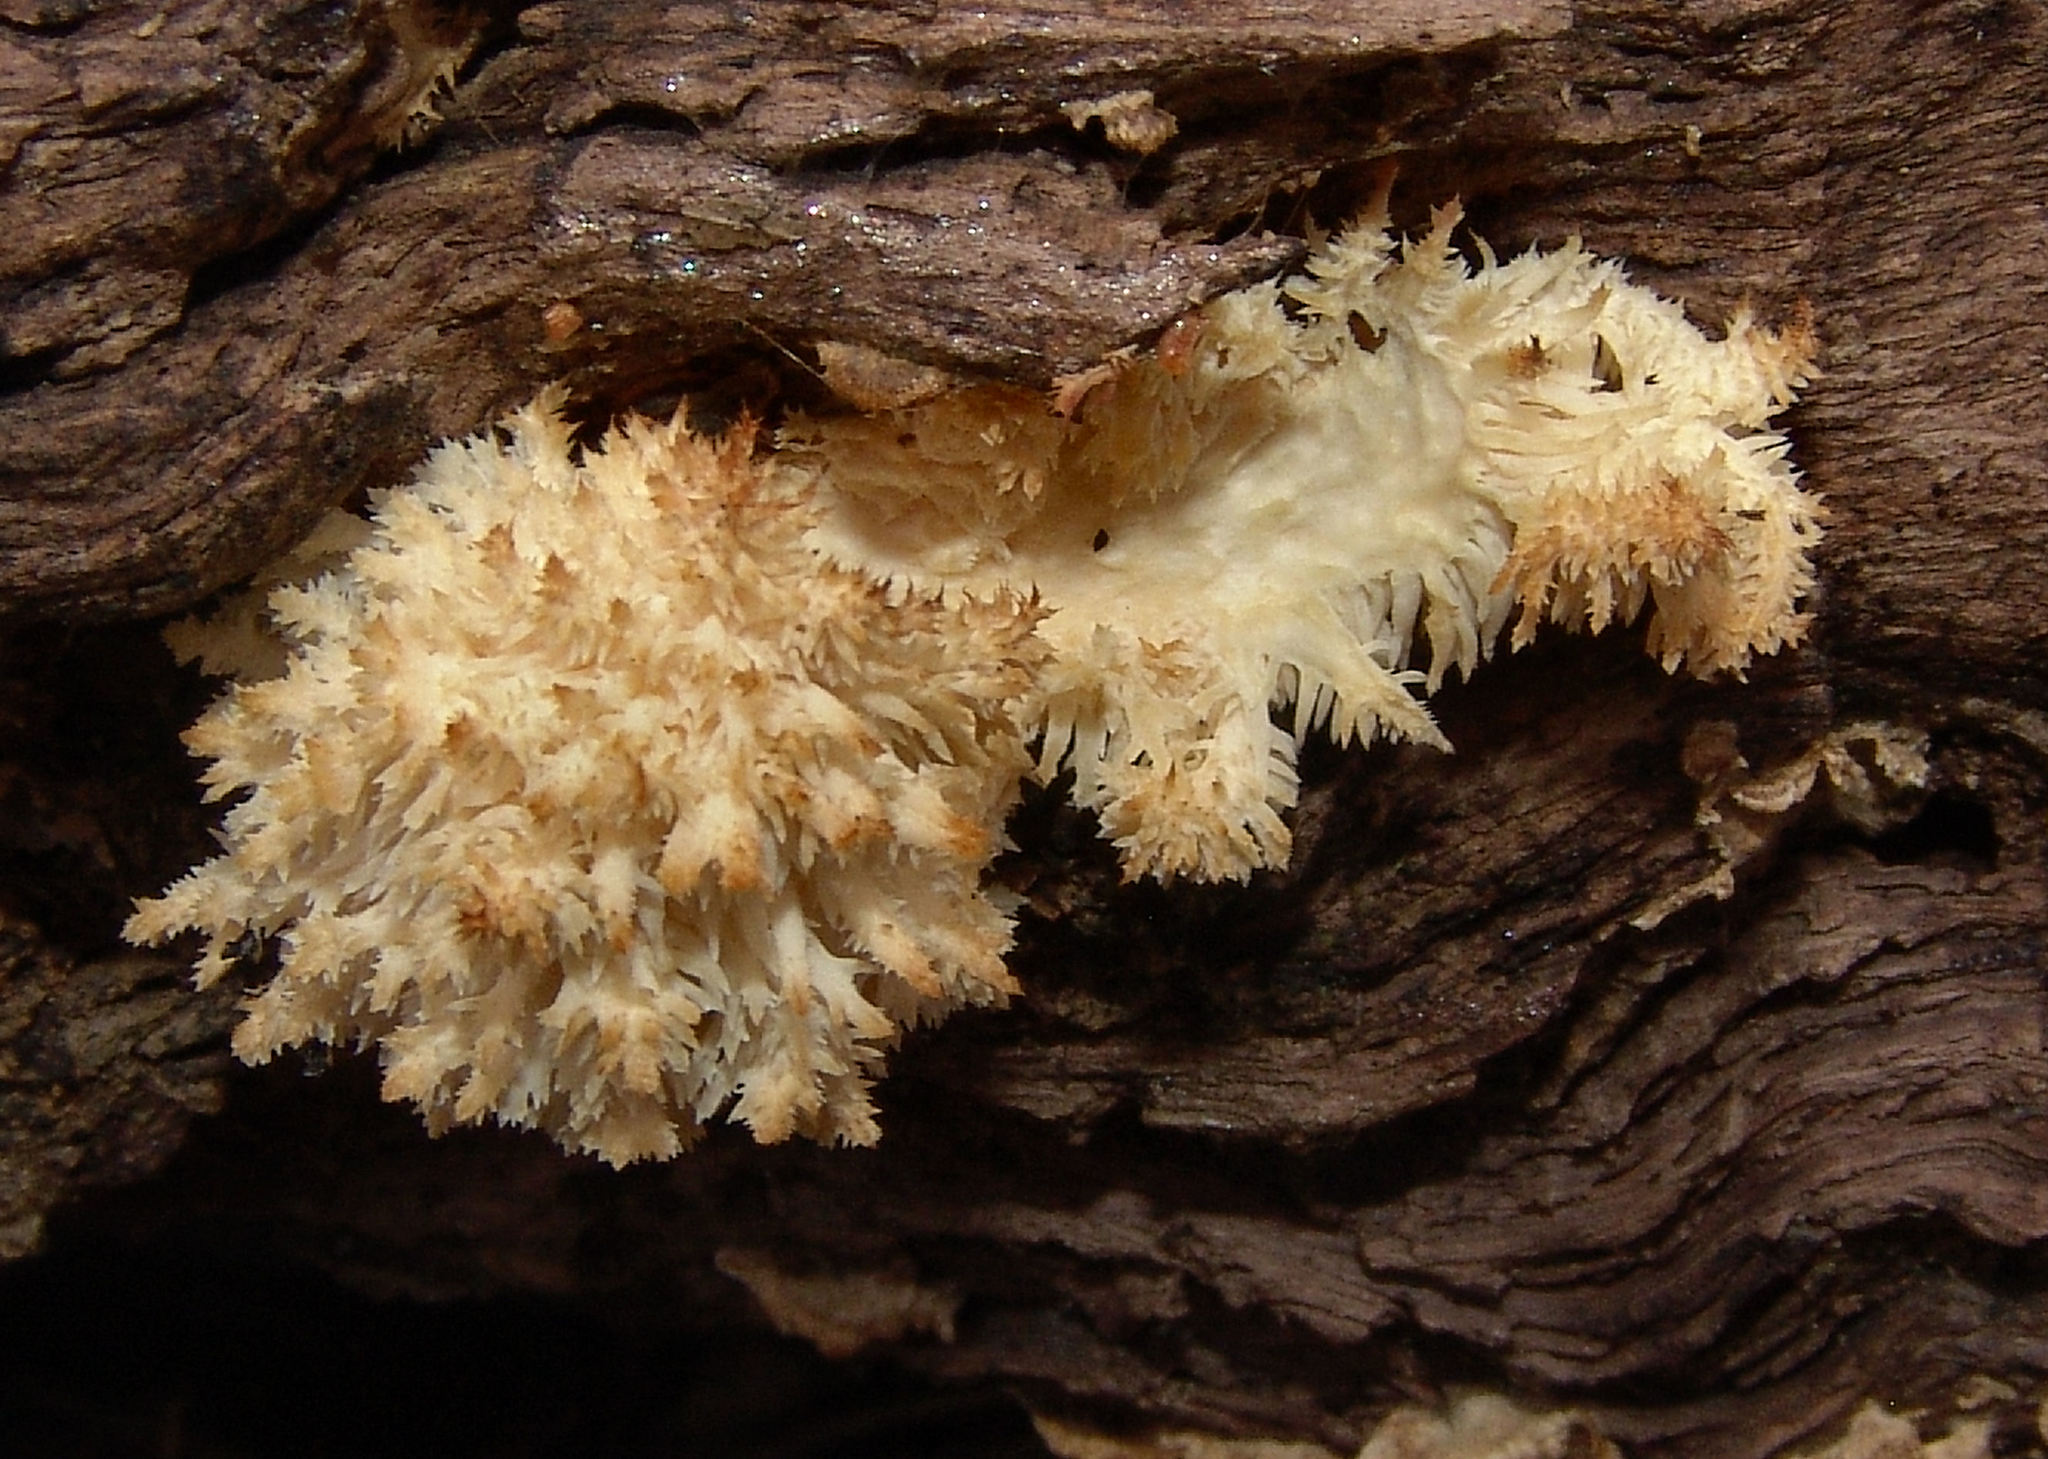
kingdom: Fungi
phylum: Basidiomycota
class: Agaricomycetes
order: Russulales
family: Hericiaceae
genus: Hericium
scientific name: Hericium coralloides
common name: Coral tooth
